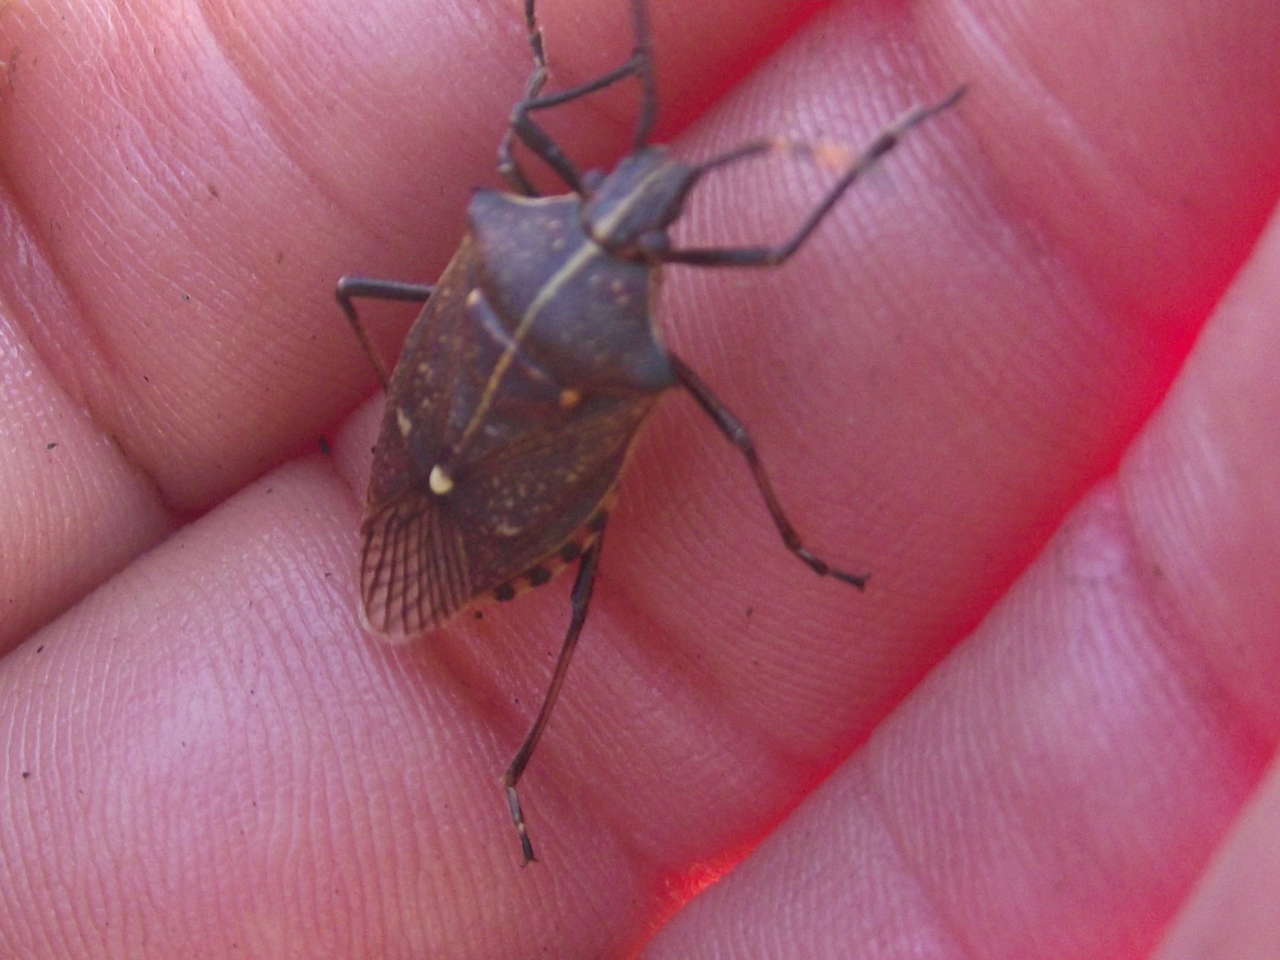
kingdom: Animalia
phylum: Arthropoda
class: Insecta
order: Hemiptera
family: Pentatomidae
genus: Omyta
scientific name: Omyta centrolineata
